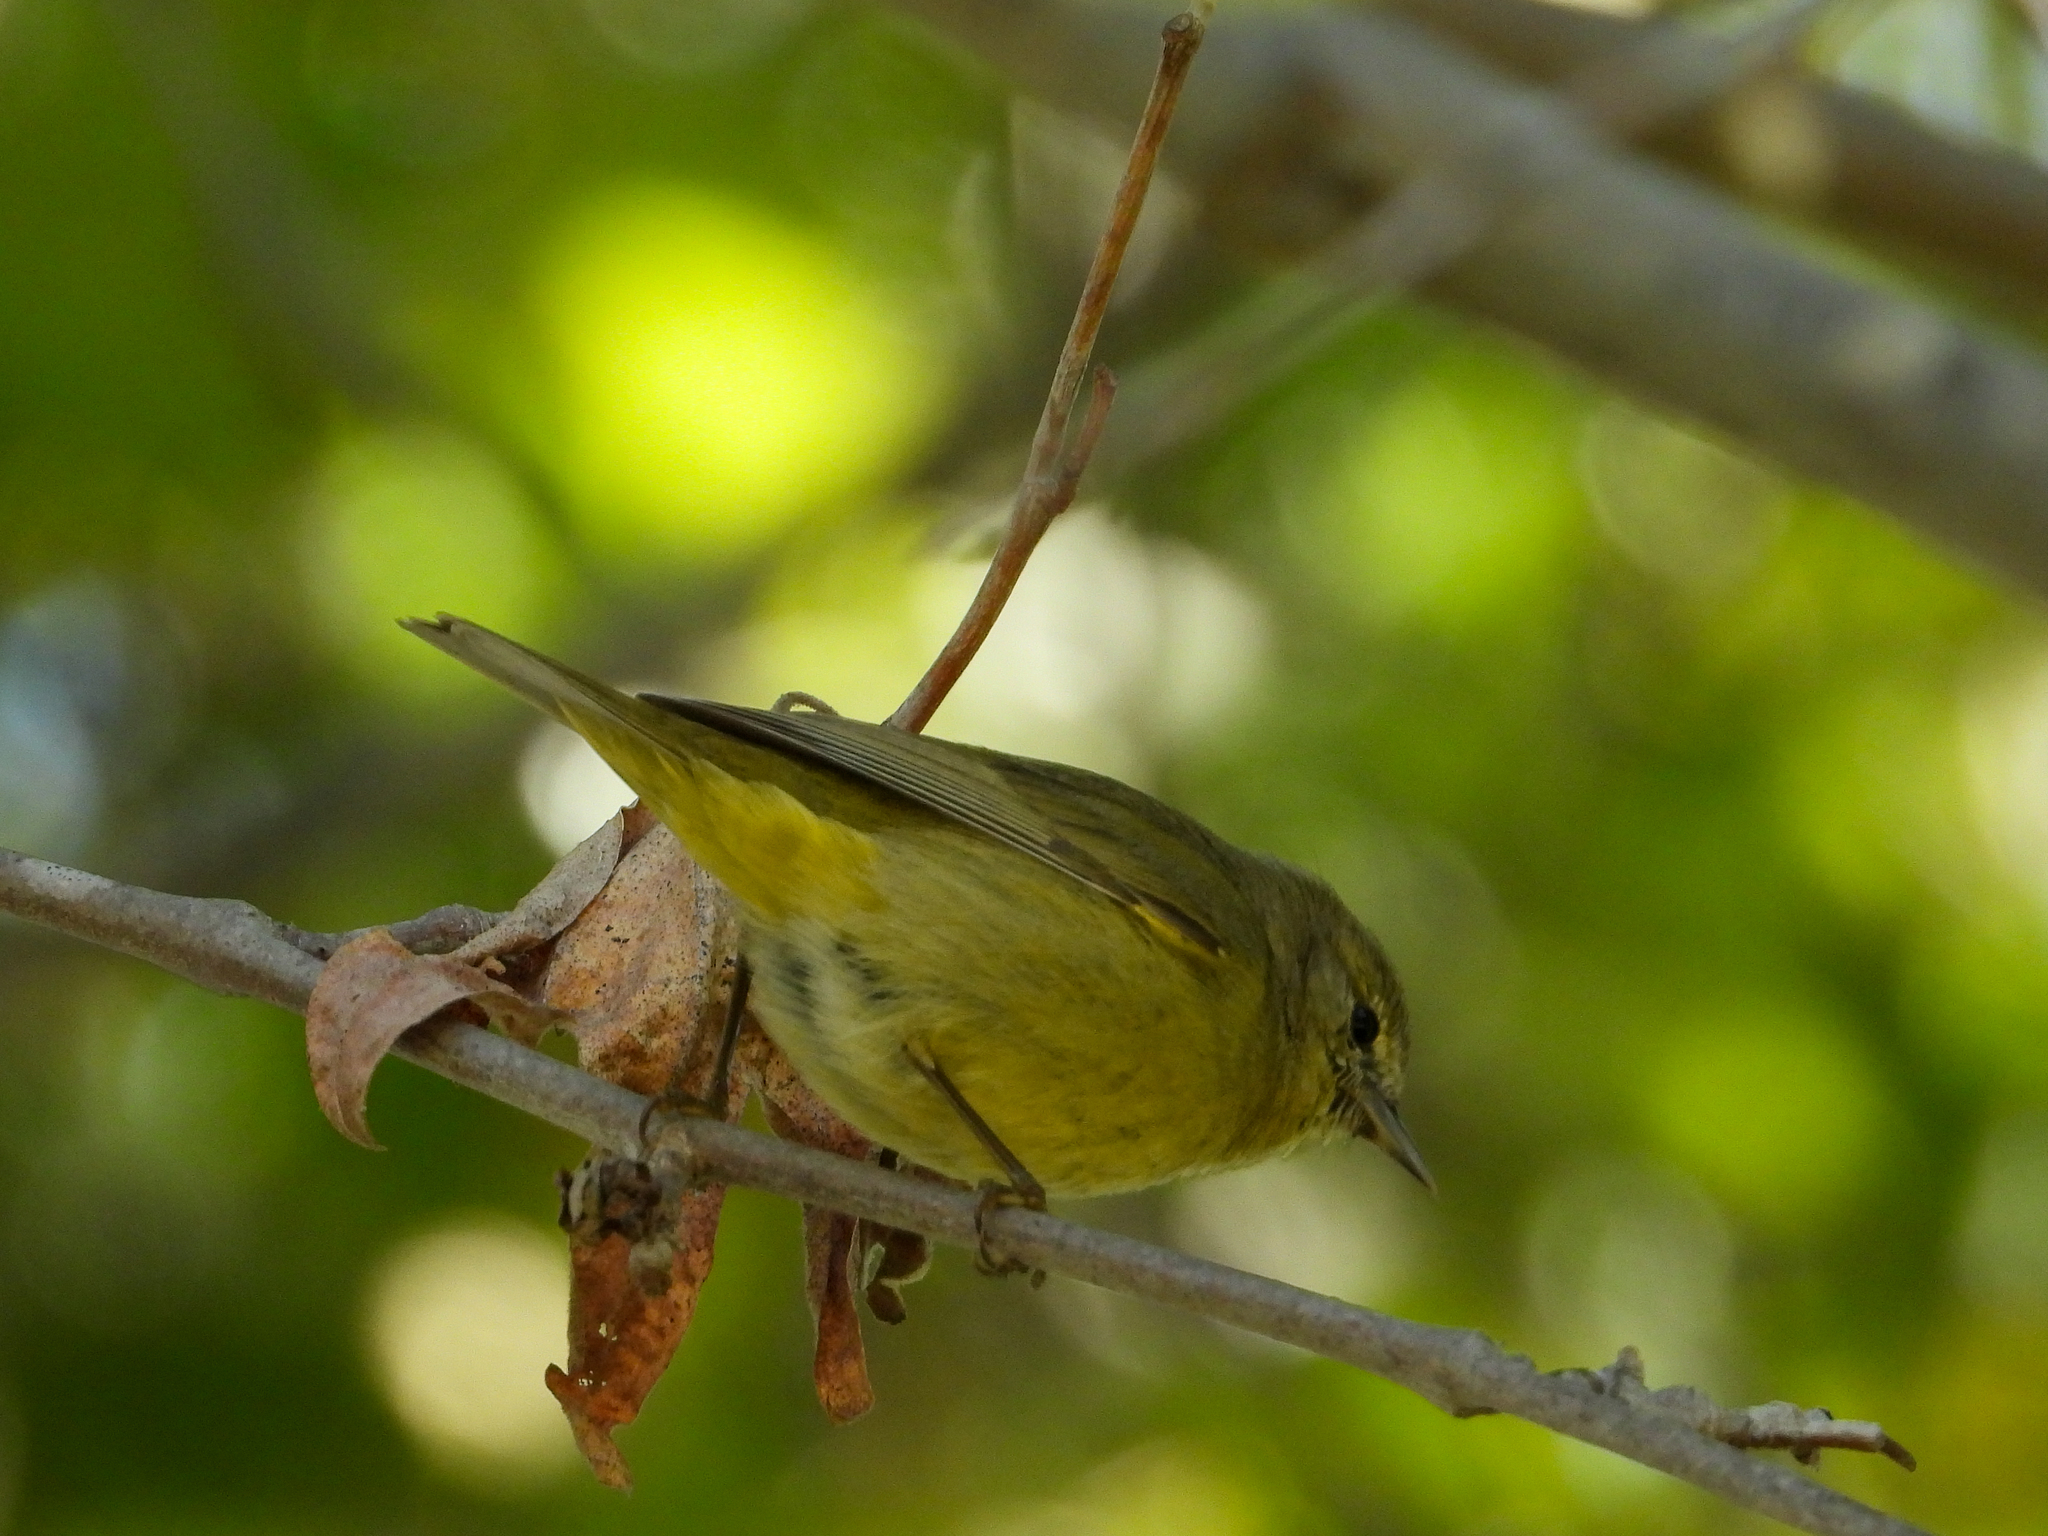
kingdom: Animalia
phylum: Chordata
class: Aves
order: Passeriformes
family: Parulidae
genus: Leiothlypis
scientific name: Leiothlypis celata
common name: Orange-crowned warbler
